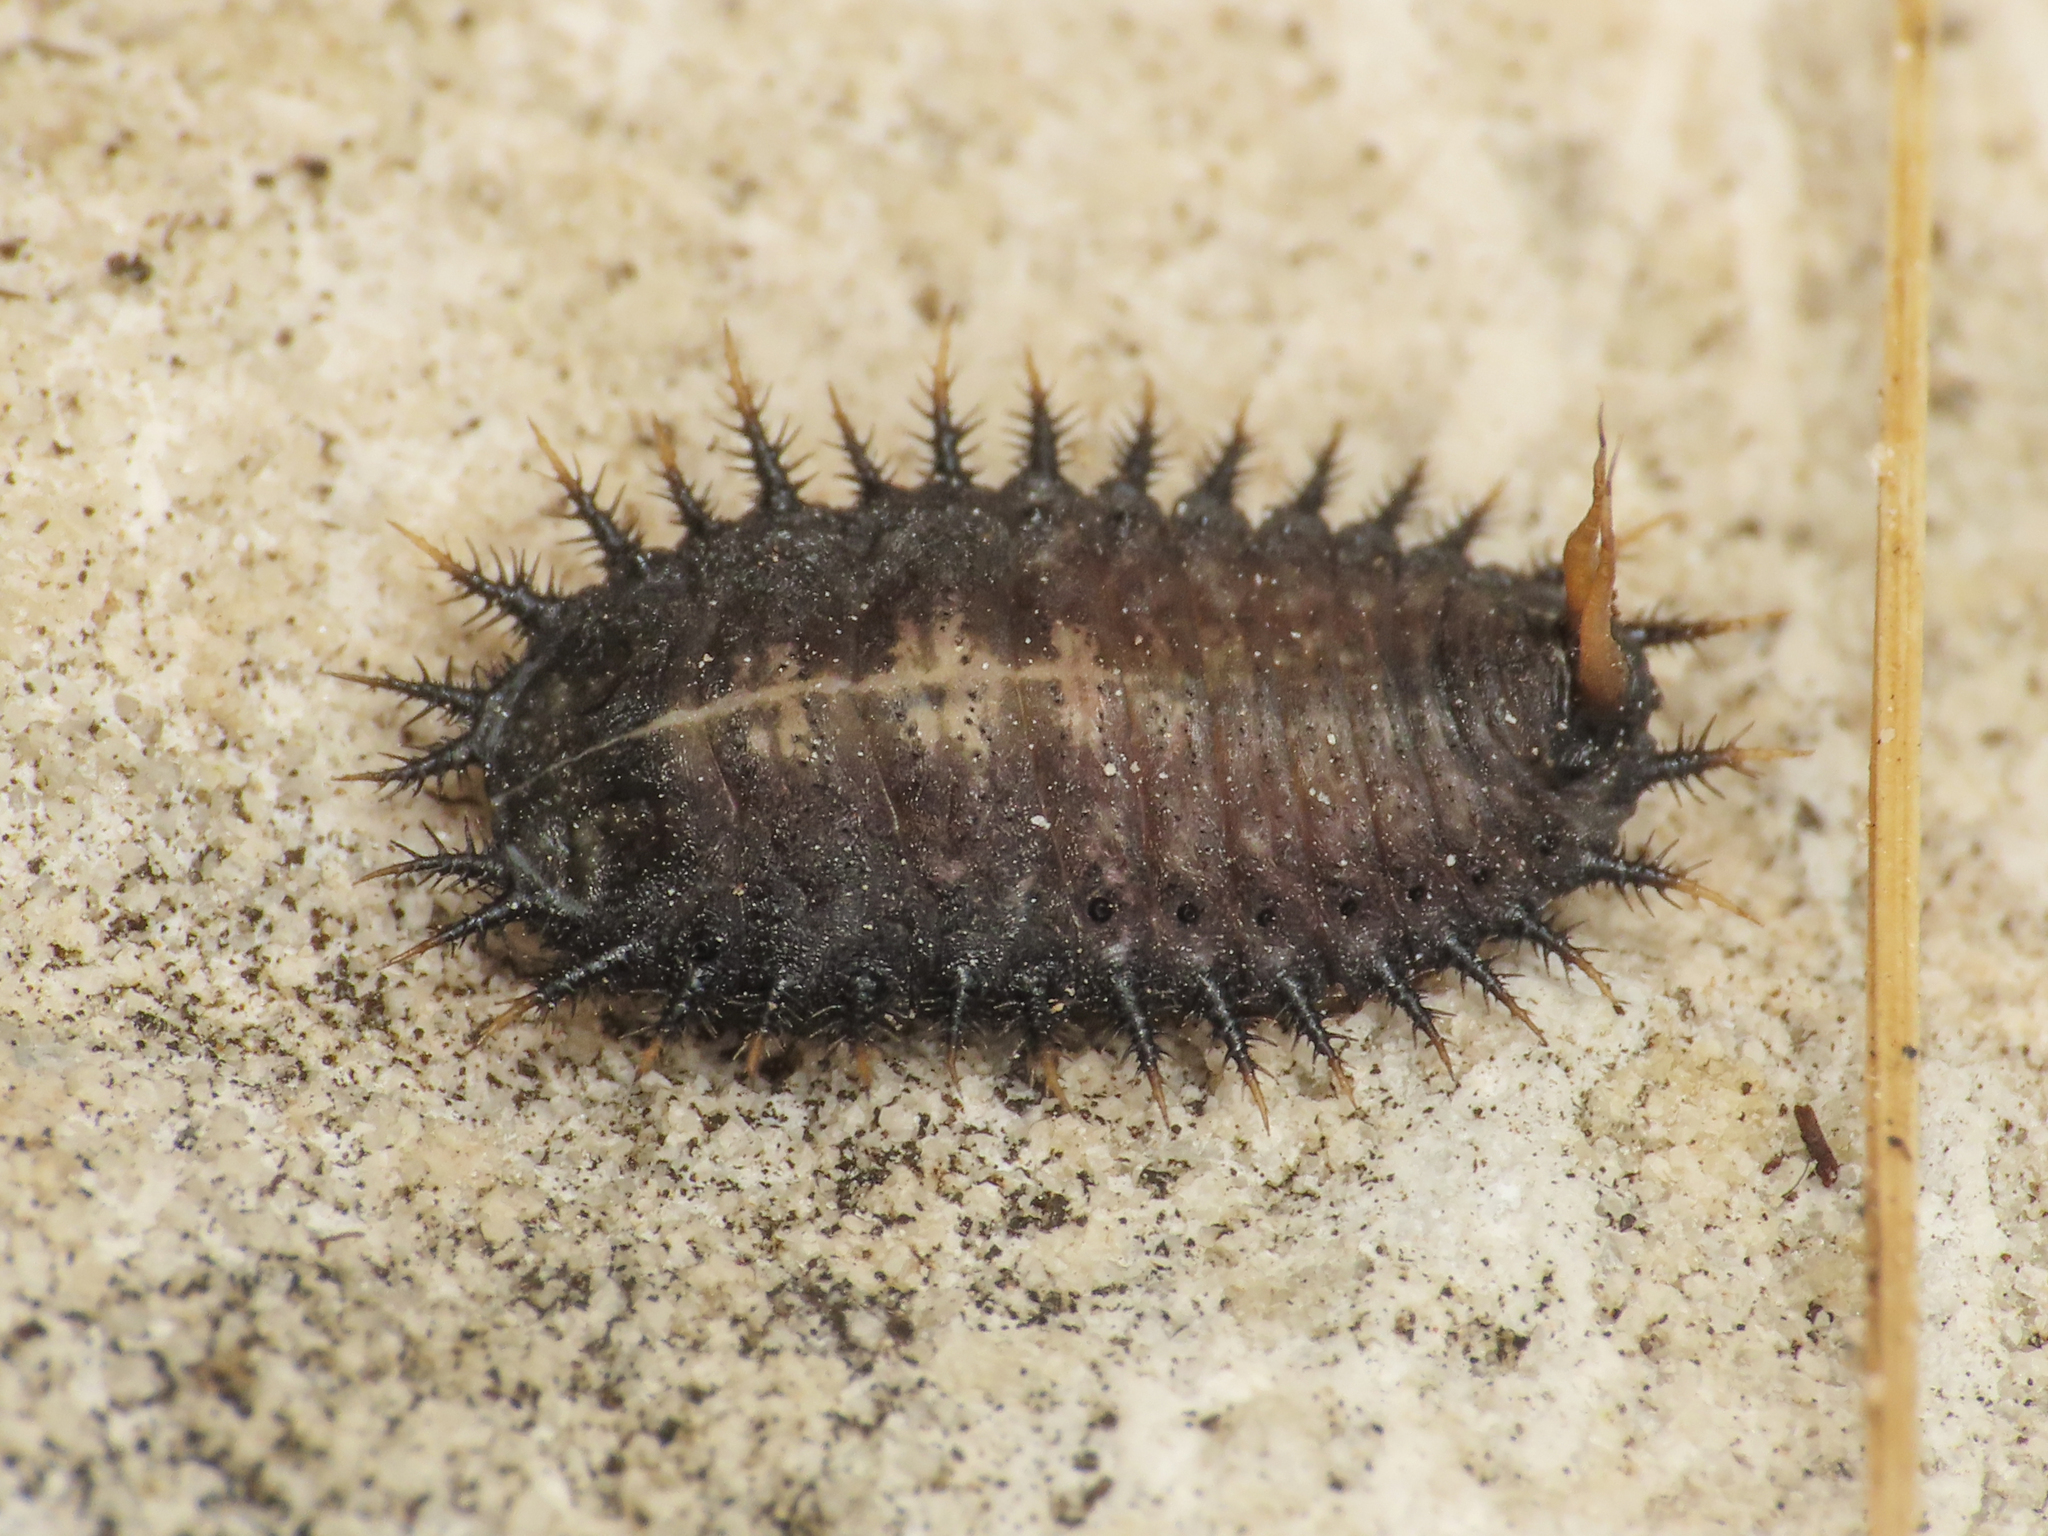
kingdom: Animalia
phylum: Arthropoda
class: Insecta
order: Coleoptera
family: Chrysomelidae
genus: Cassida
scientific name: Cassida alpina
